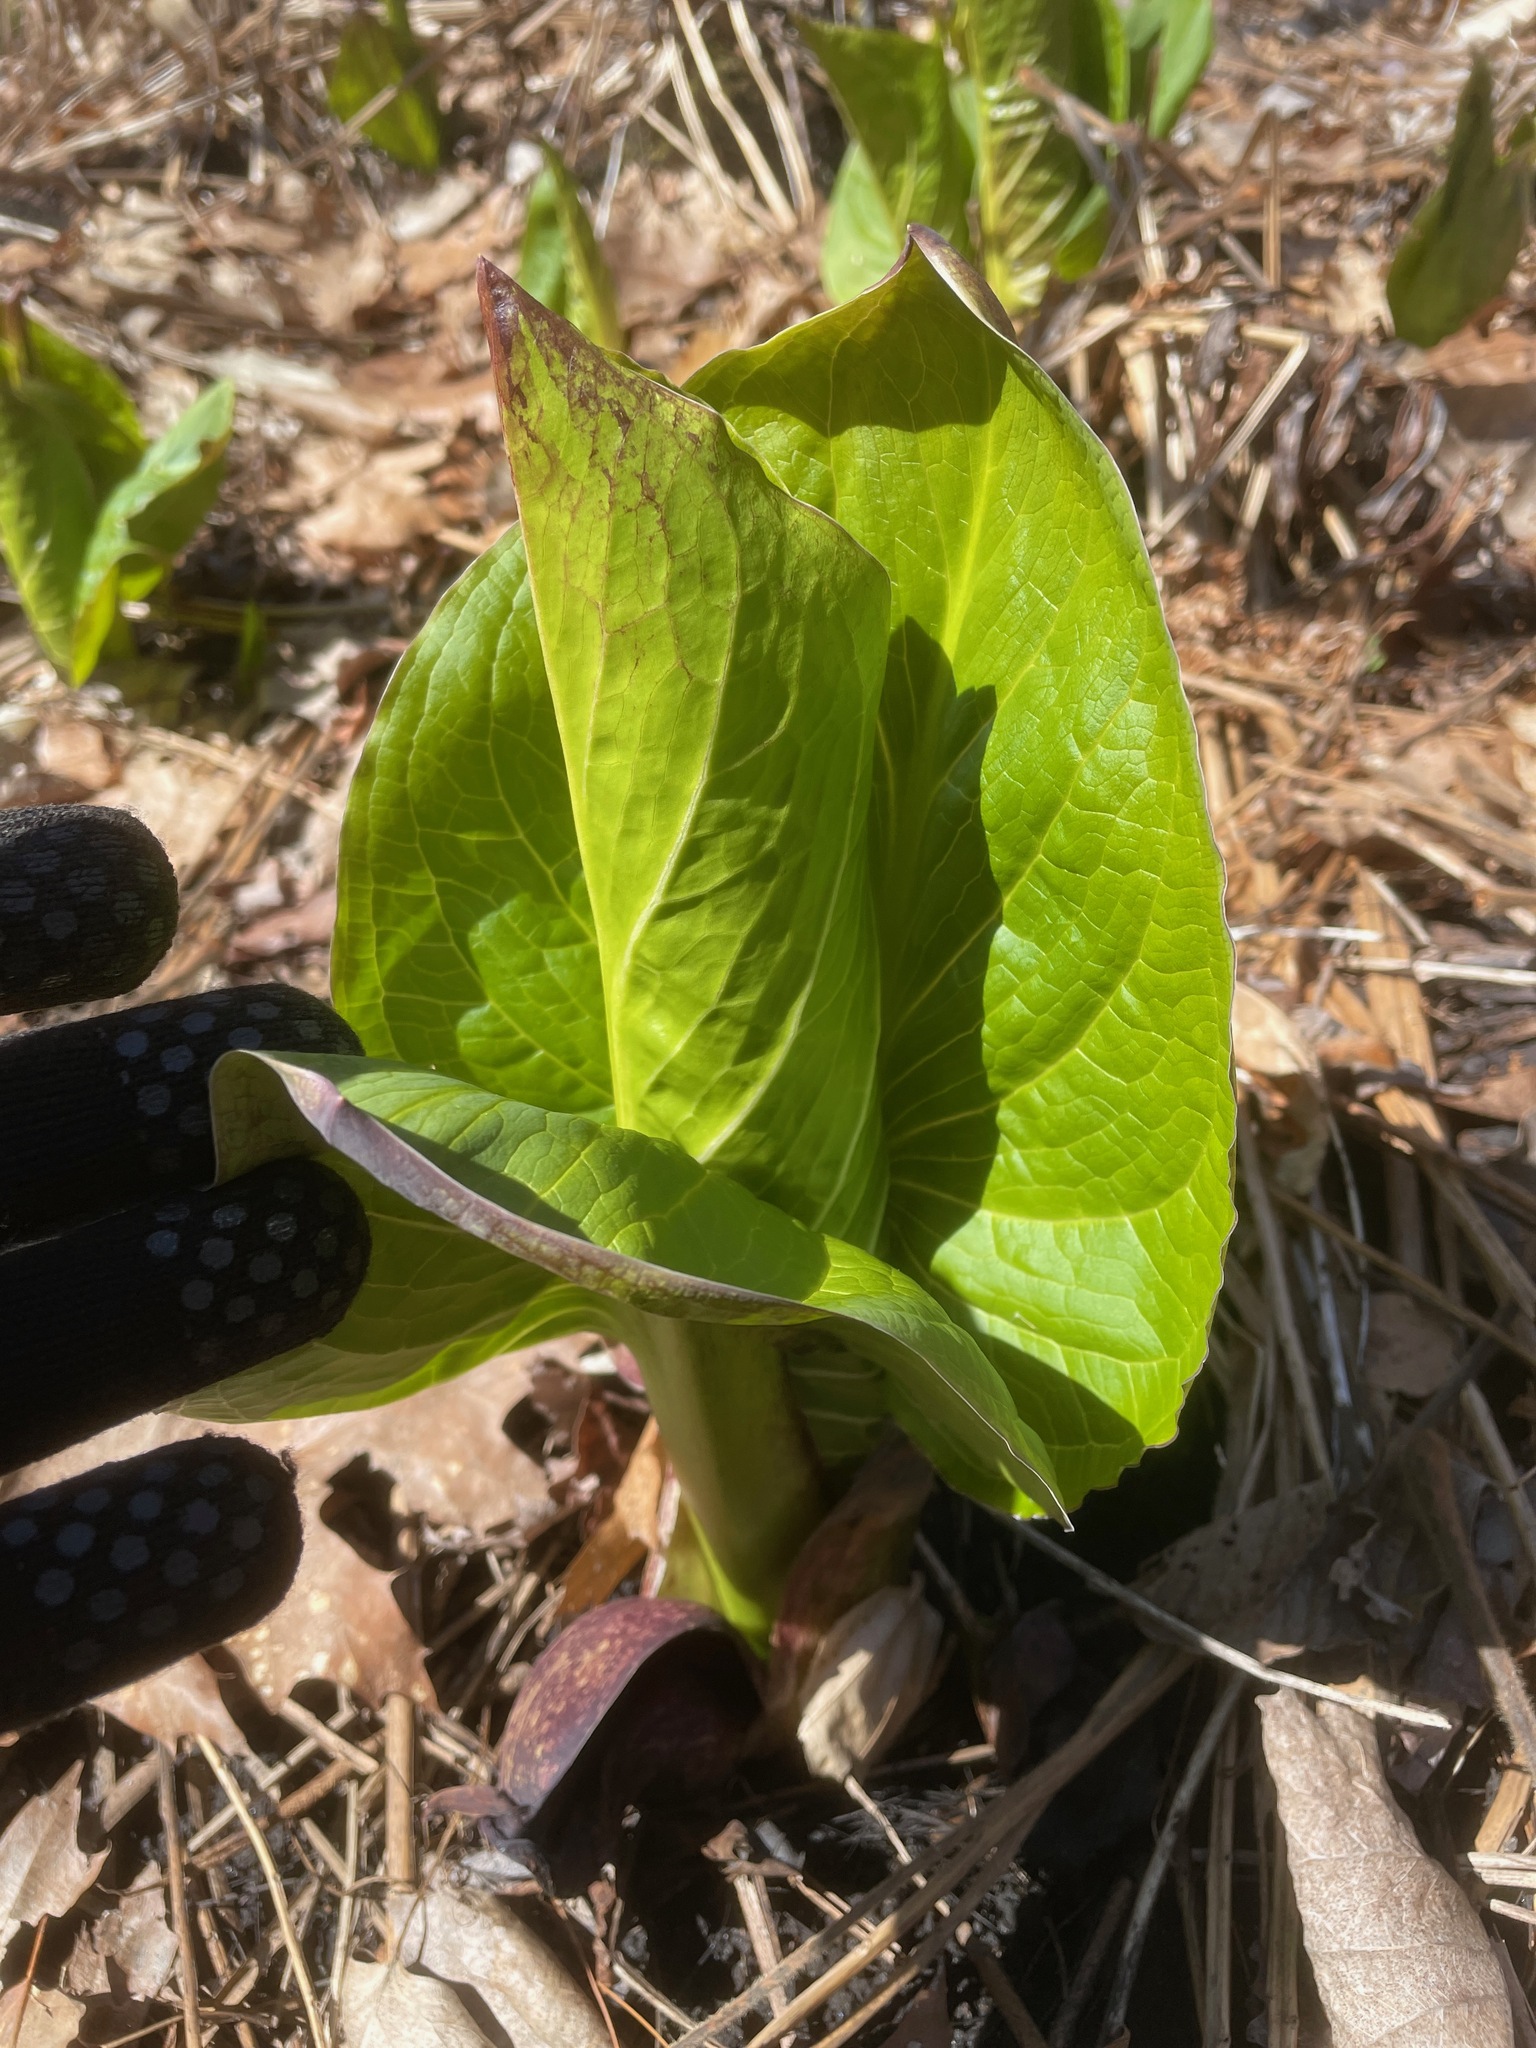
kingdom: Plantae
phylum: Tracheophyta
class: Liliopsida
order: Alismatales
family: Araceae
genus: Symplocarpus
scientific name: Symplocarpus foetidus
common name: Eastern skunk cabbage
